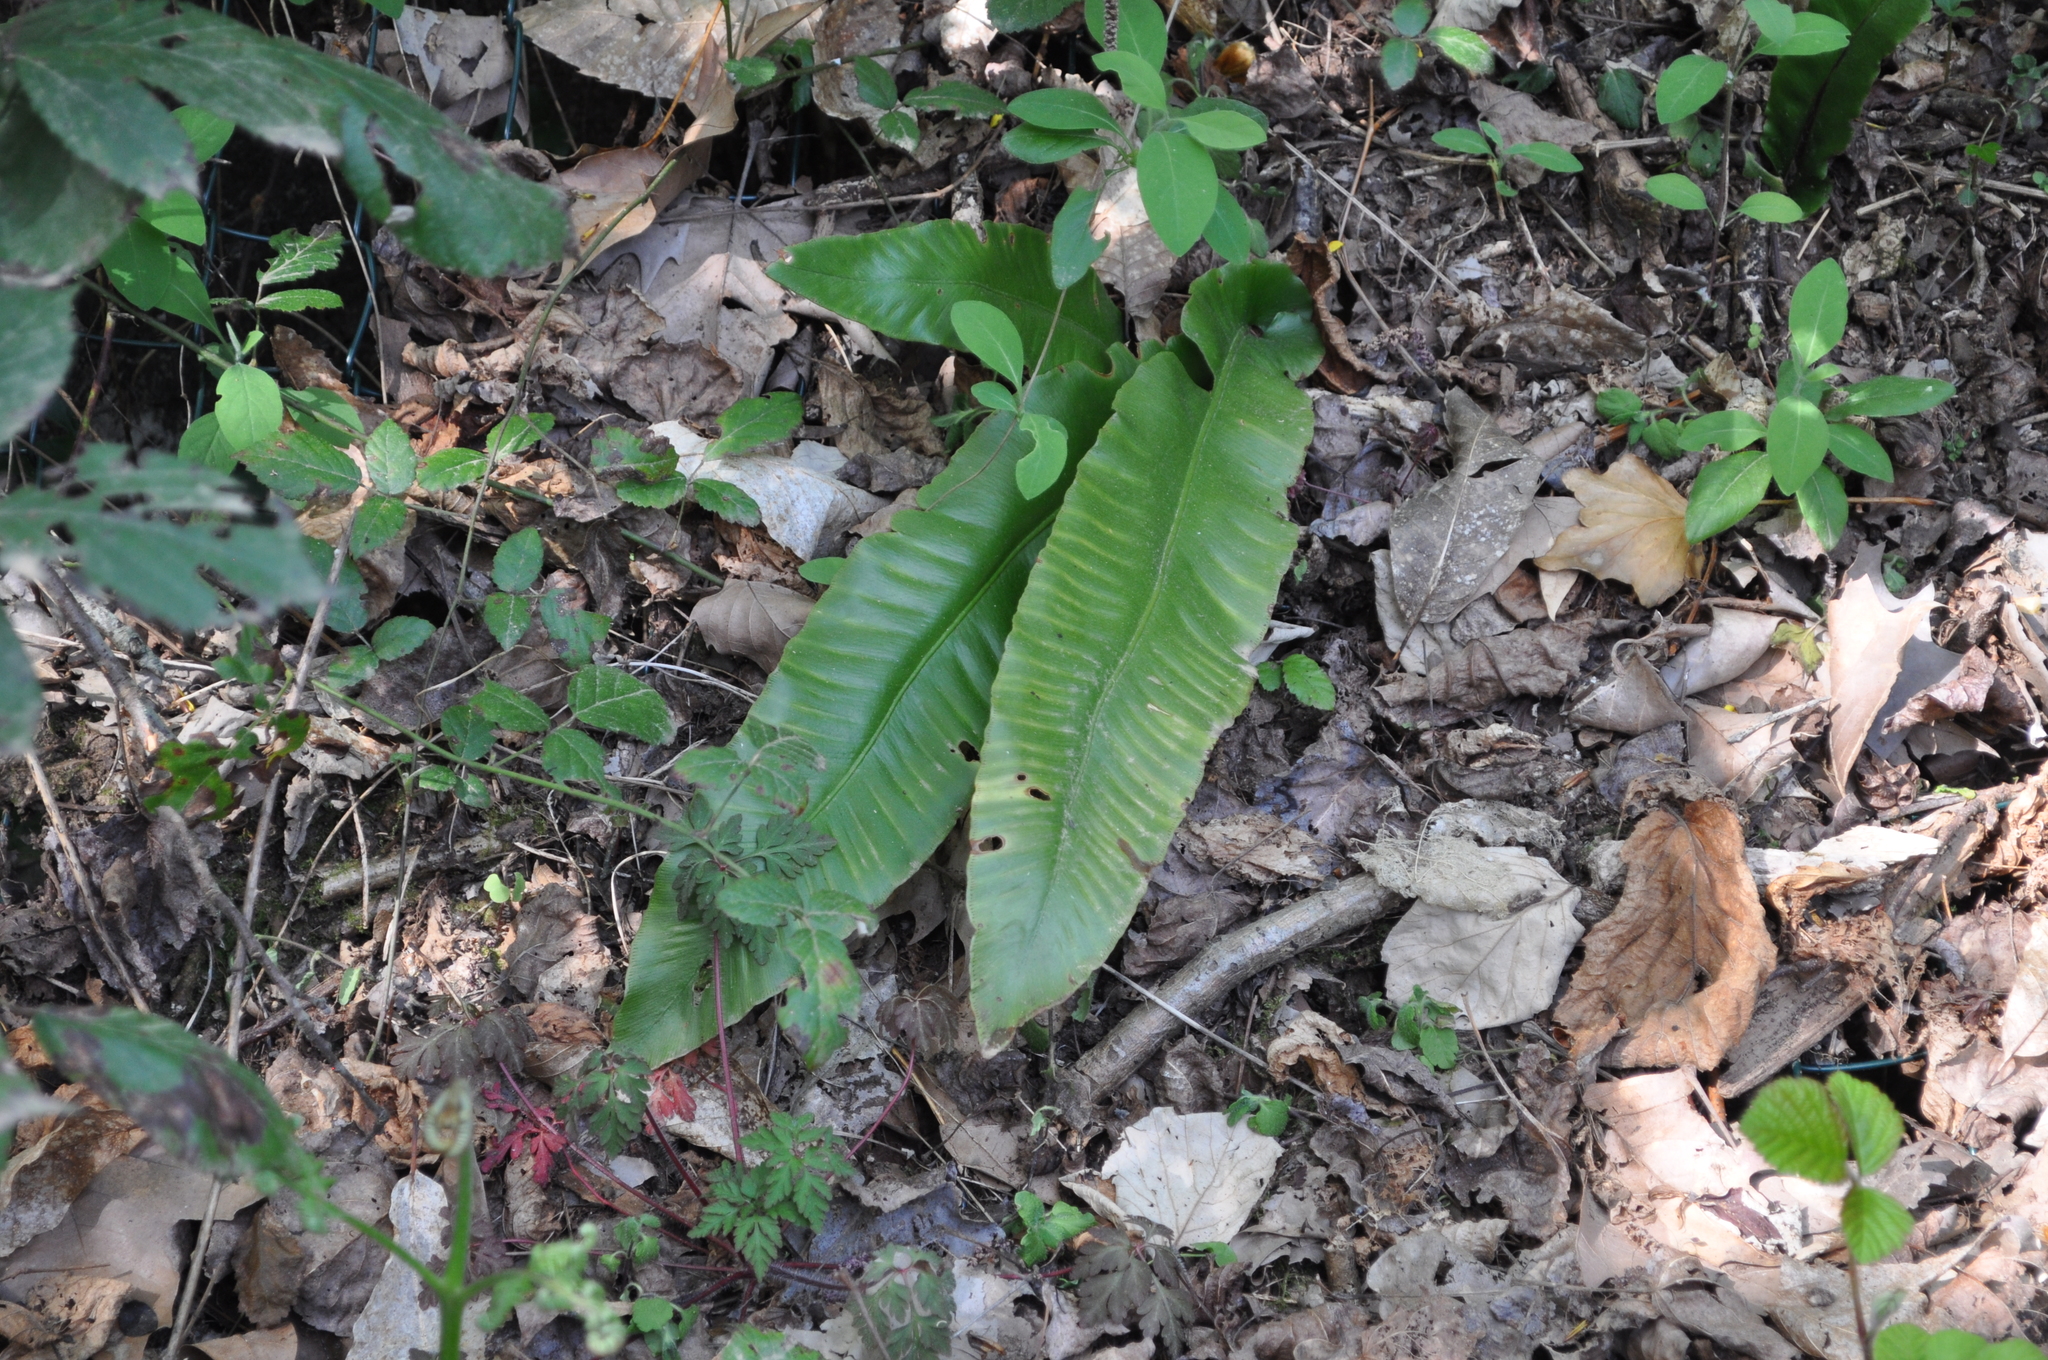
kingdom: Plantae
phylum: Tracheophyta
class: Polypodiopsida
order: Polypodiales
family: Aspleniaceae
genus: Asplenium
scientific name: Asplenium scolopendrium
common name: Hart's-tongue fern
